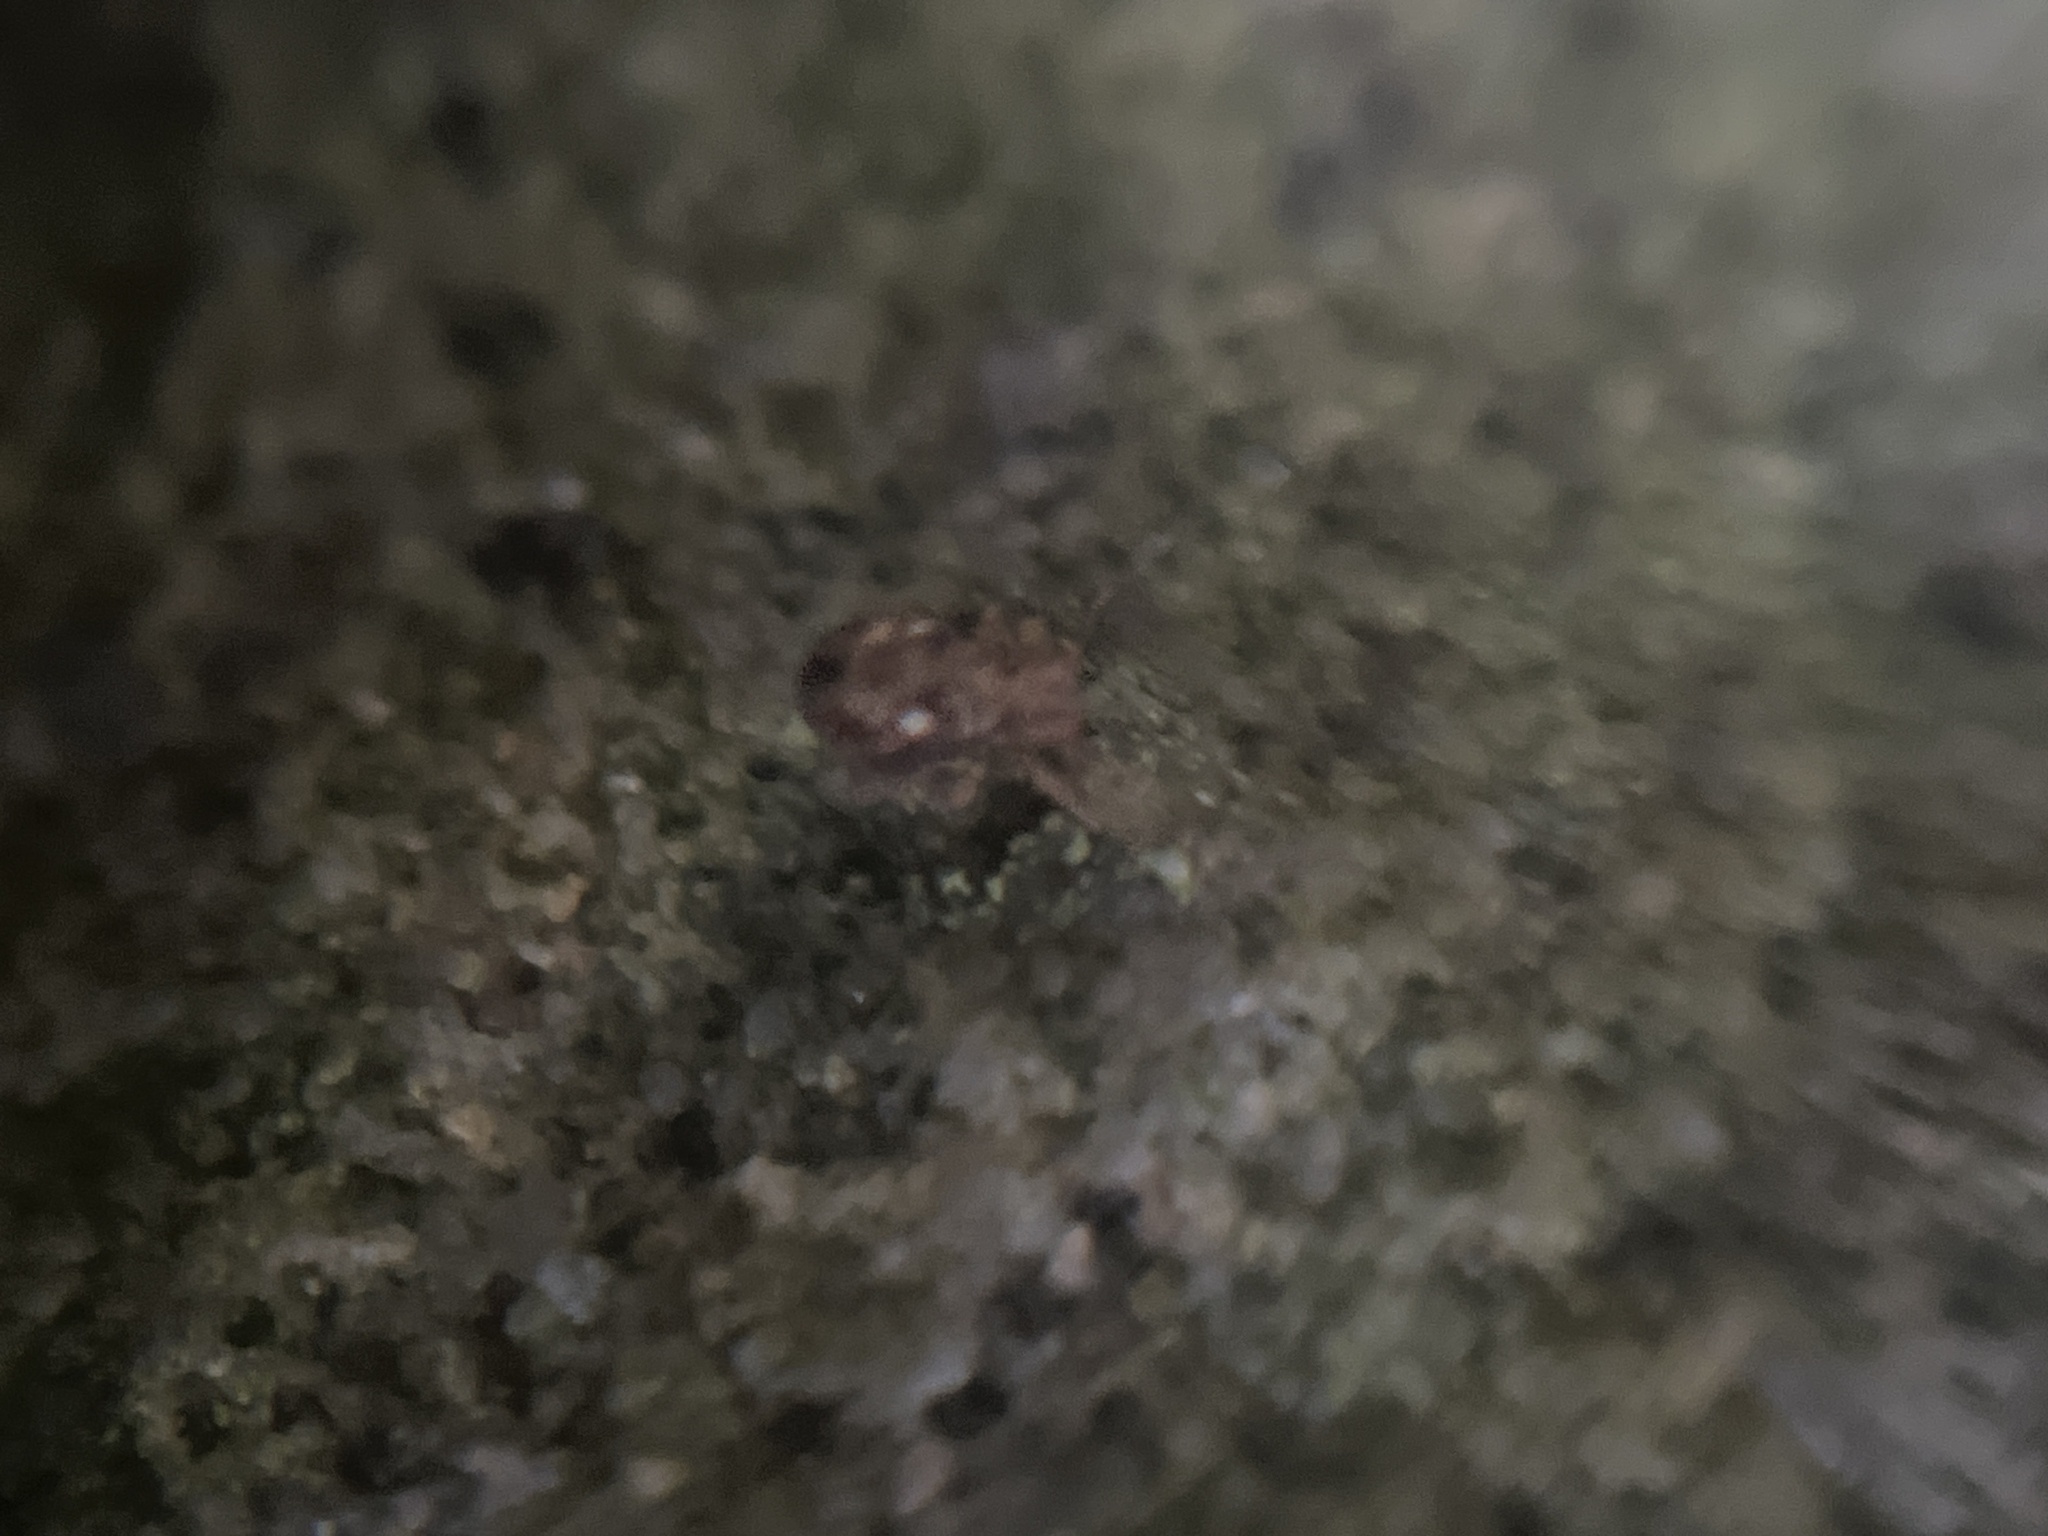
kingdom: Animalia
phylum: Arthropoda
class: Collembola
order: Symphypleona
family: Dicyrtomidae
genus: Dicyrtomina
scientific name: Dicyrtomina saundersi
